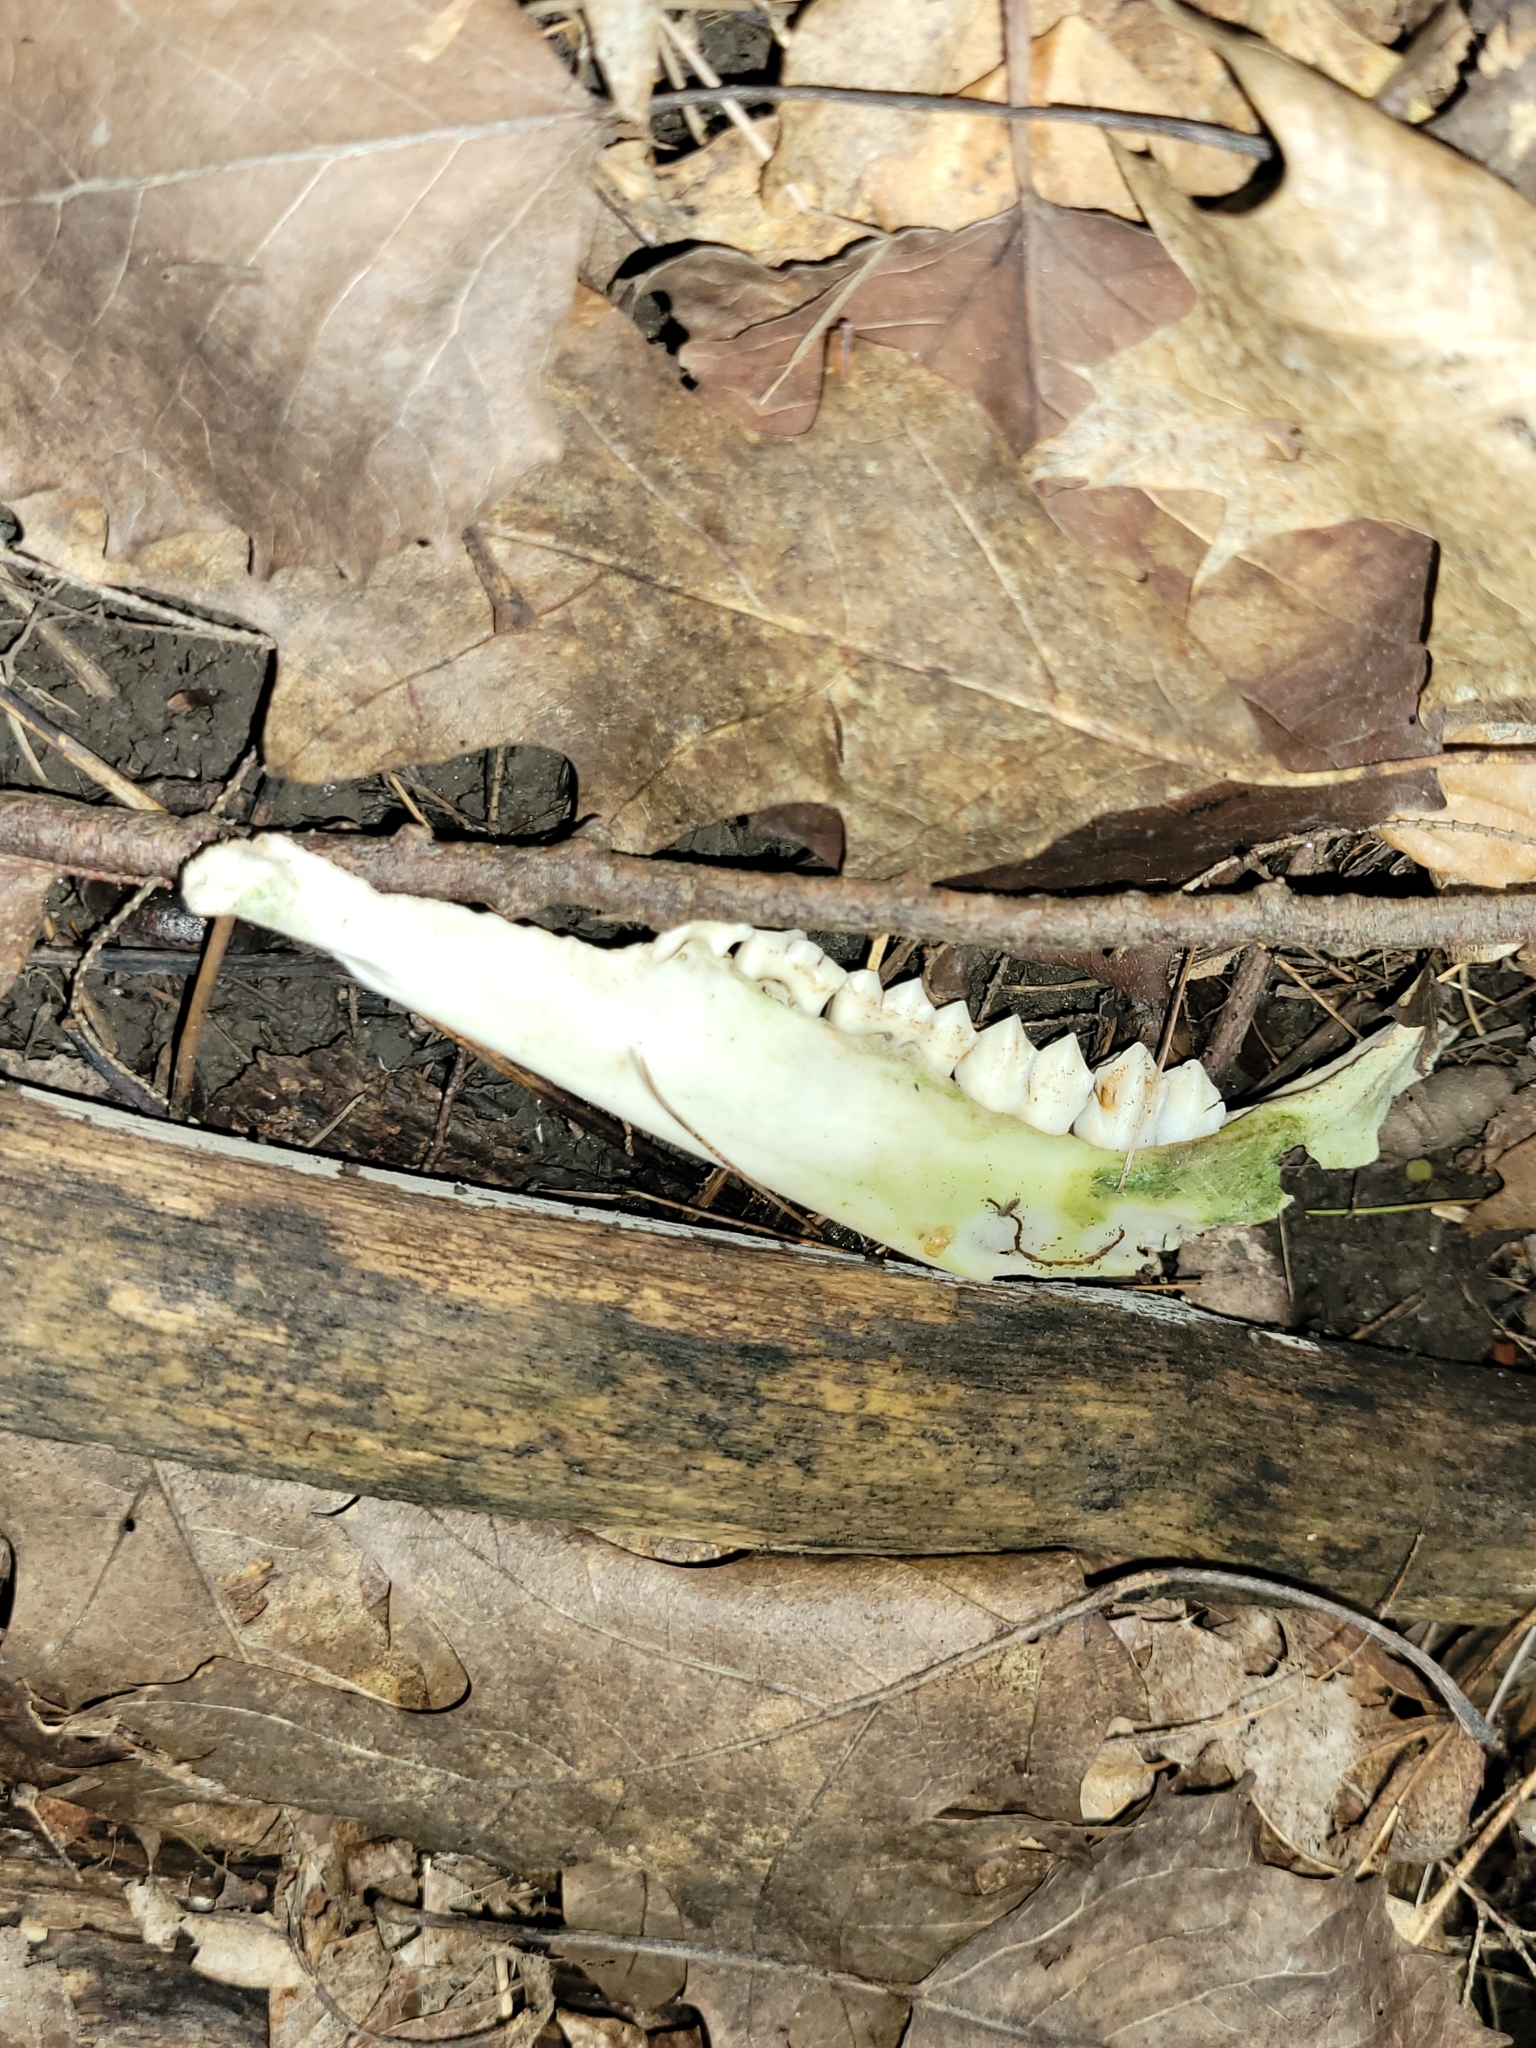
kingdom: Animalia
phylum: Chordata
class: Mammalia
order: Artiodactyla
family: Cervidae
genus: Odocoileus
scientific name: Odocoileus virginianus
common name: White-tailed deer
